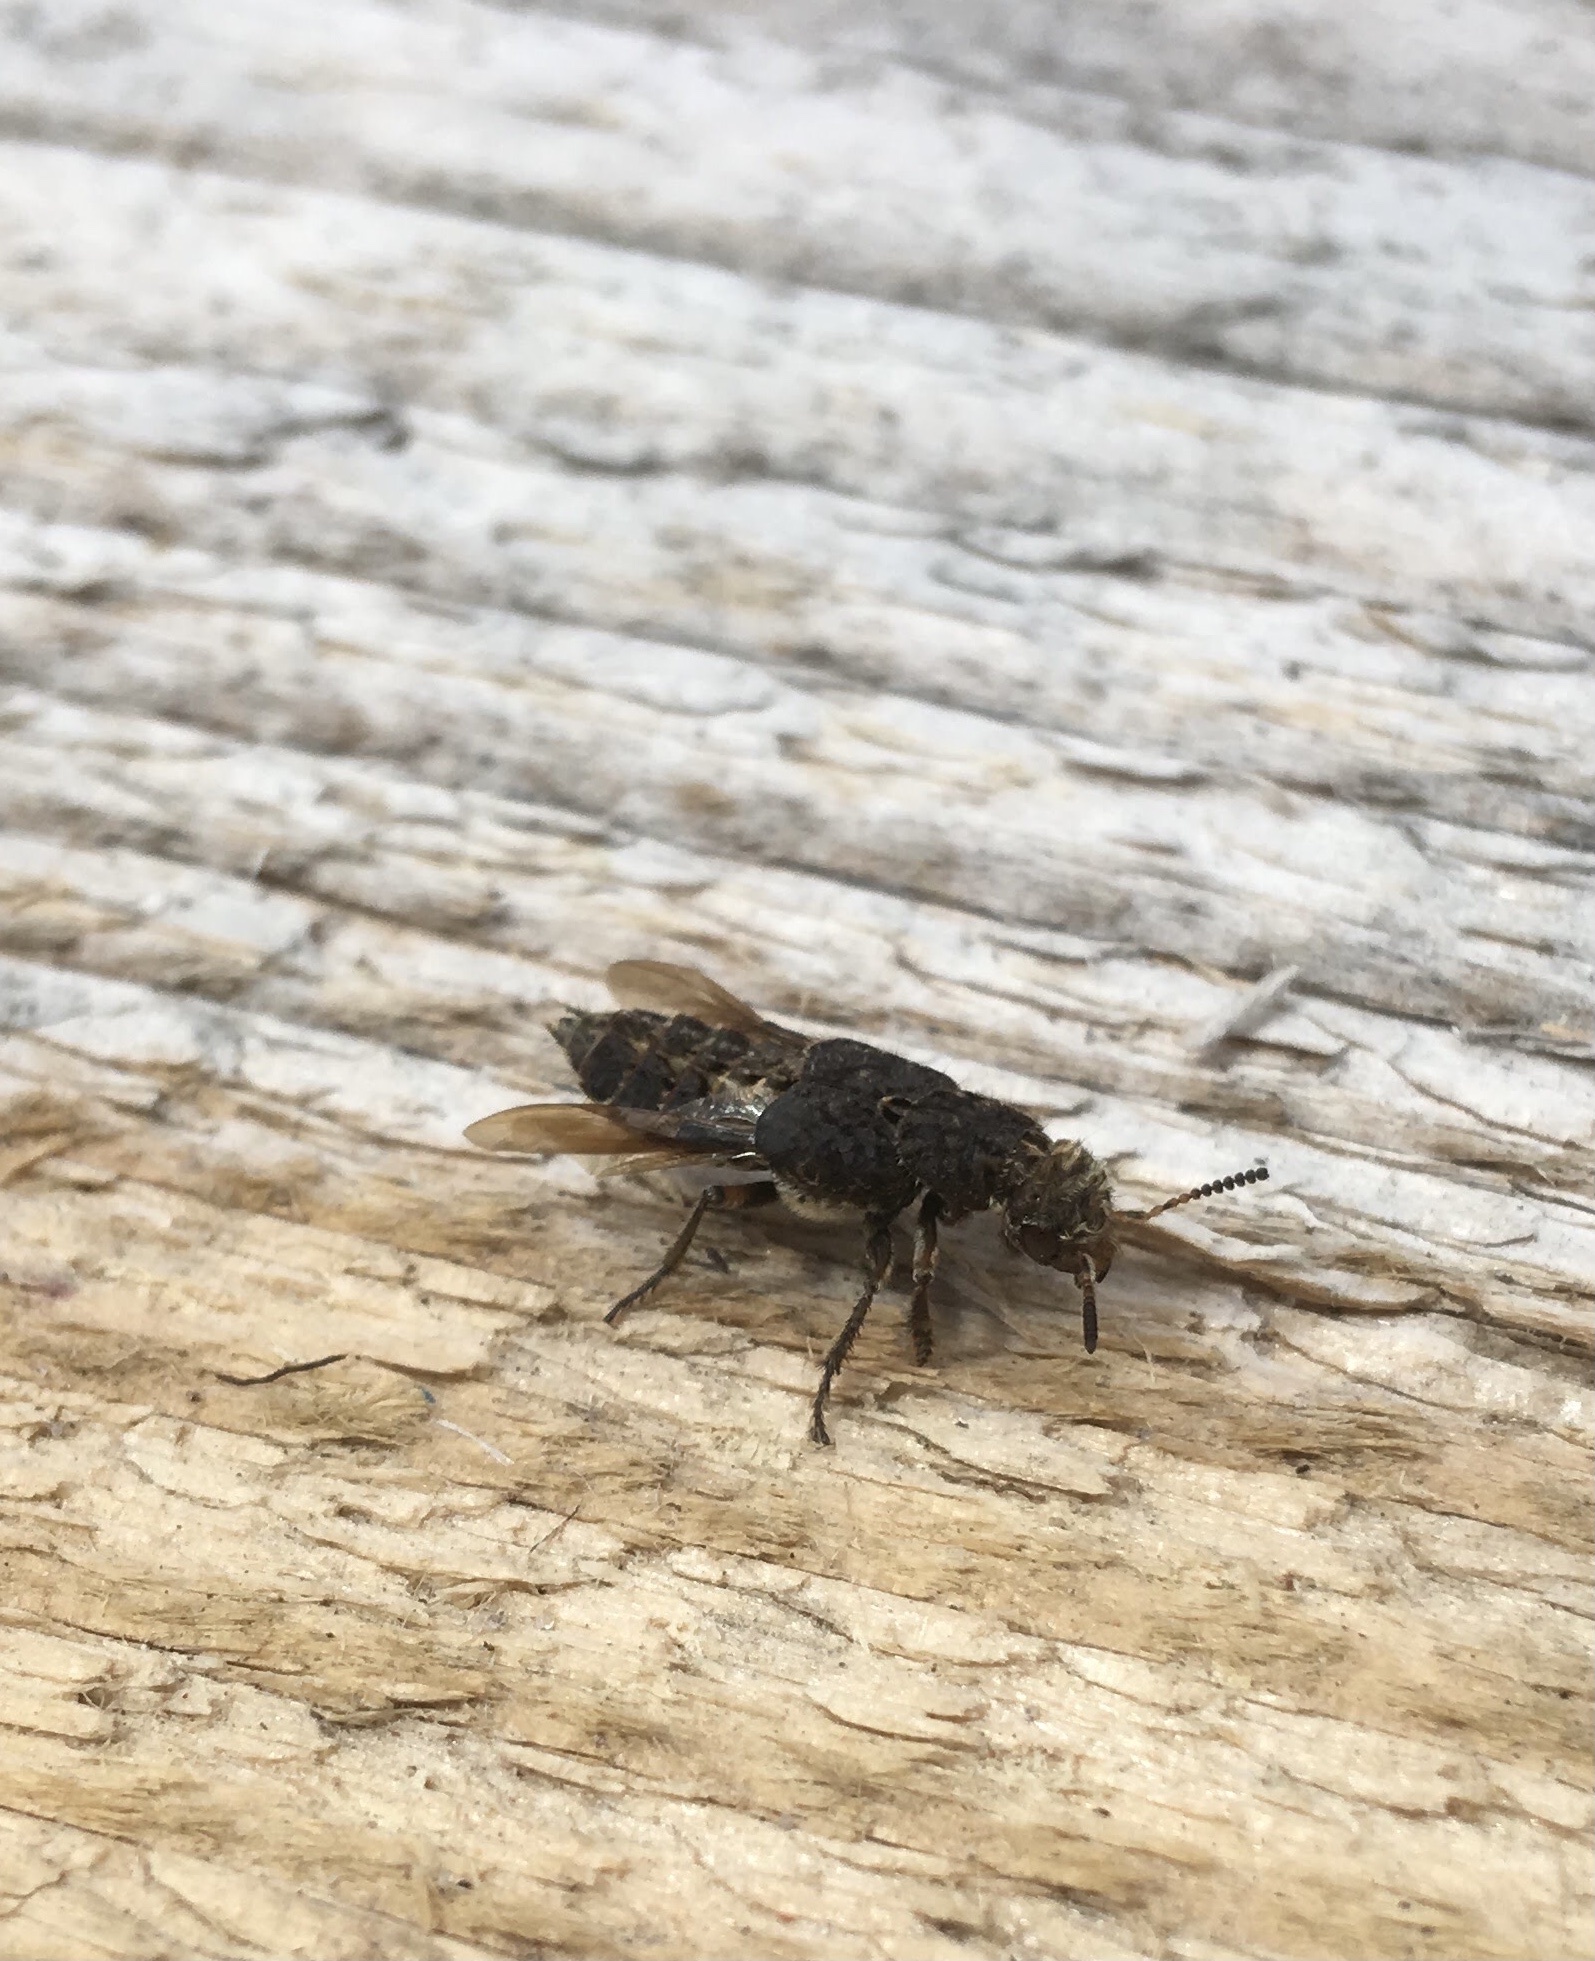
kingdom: Animalia
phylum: Arthropoda
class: Insecta
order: Coleoptera
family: Staphylinidae
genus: Dinothenarus
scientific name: Dinothenarus pubescens
